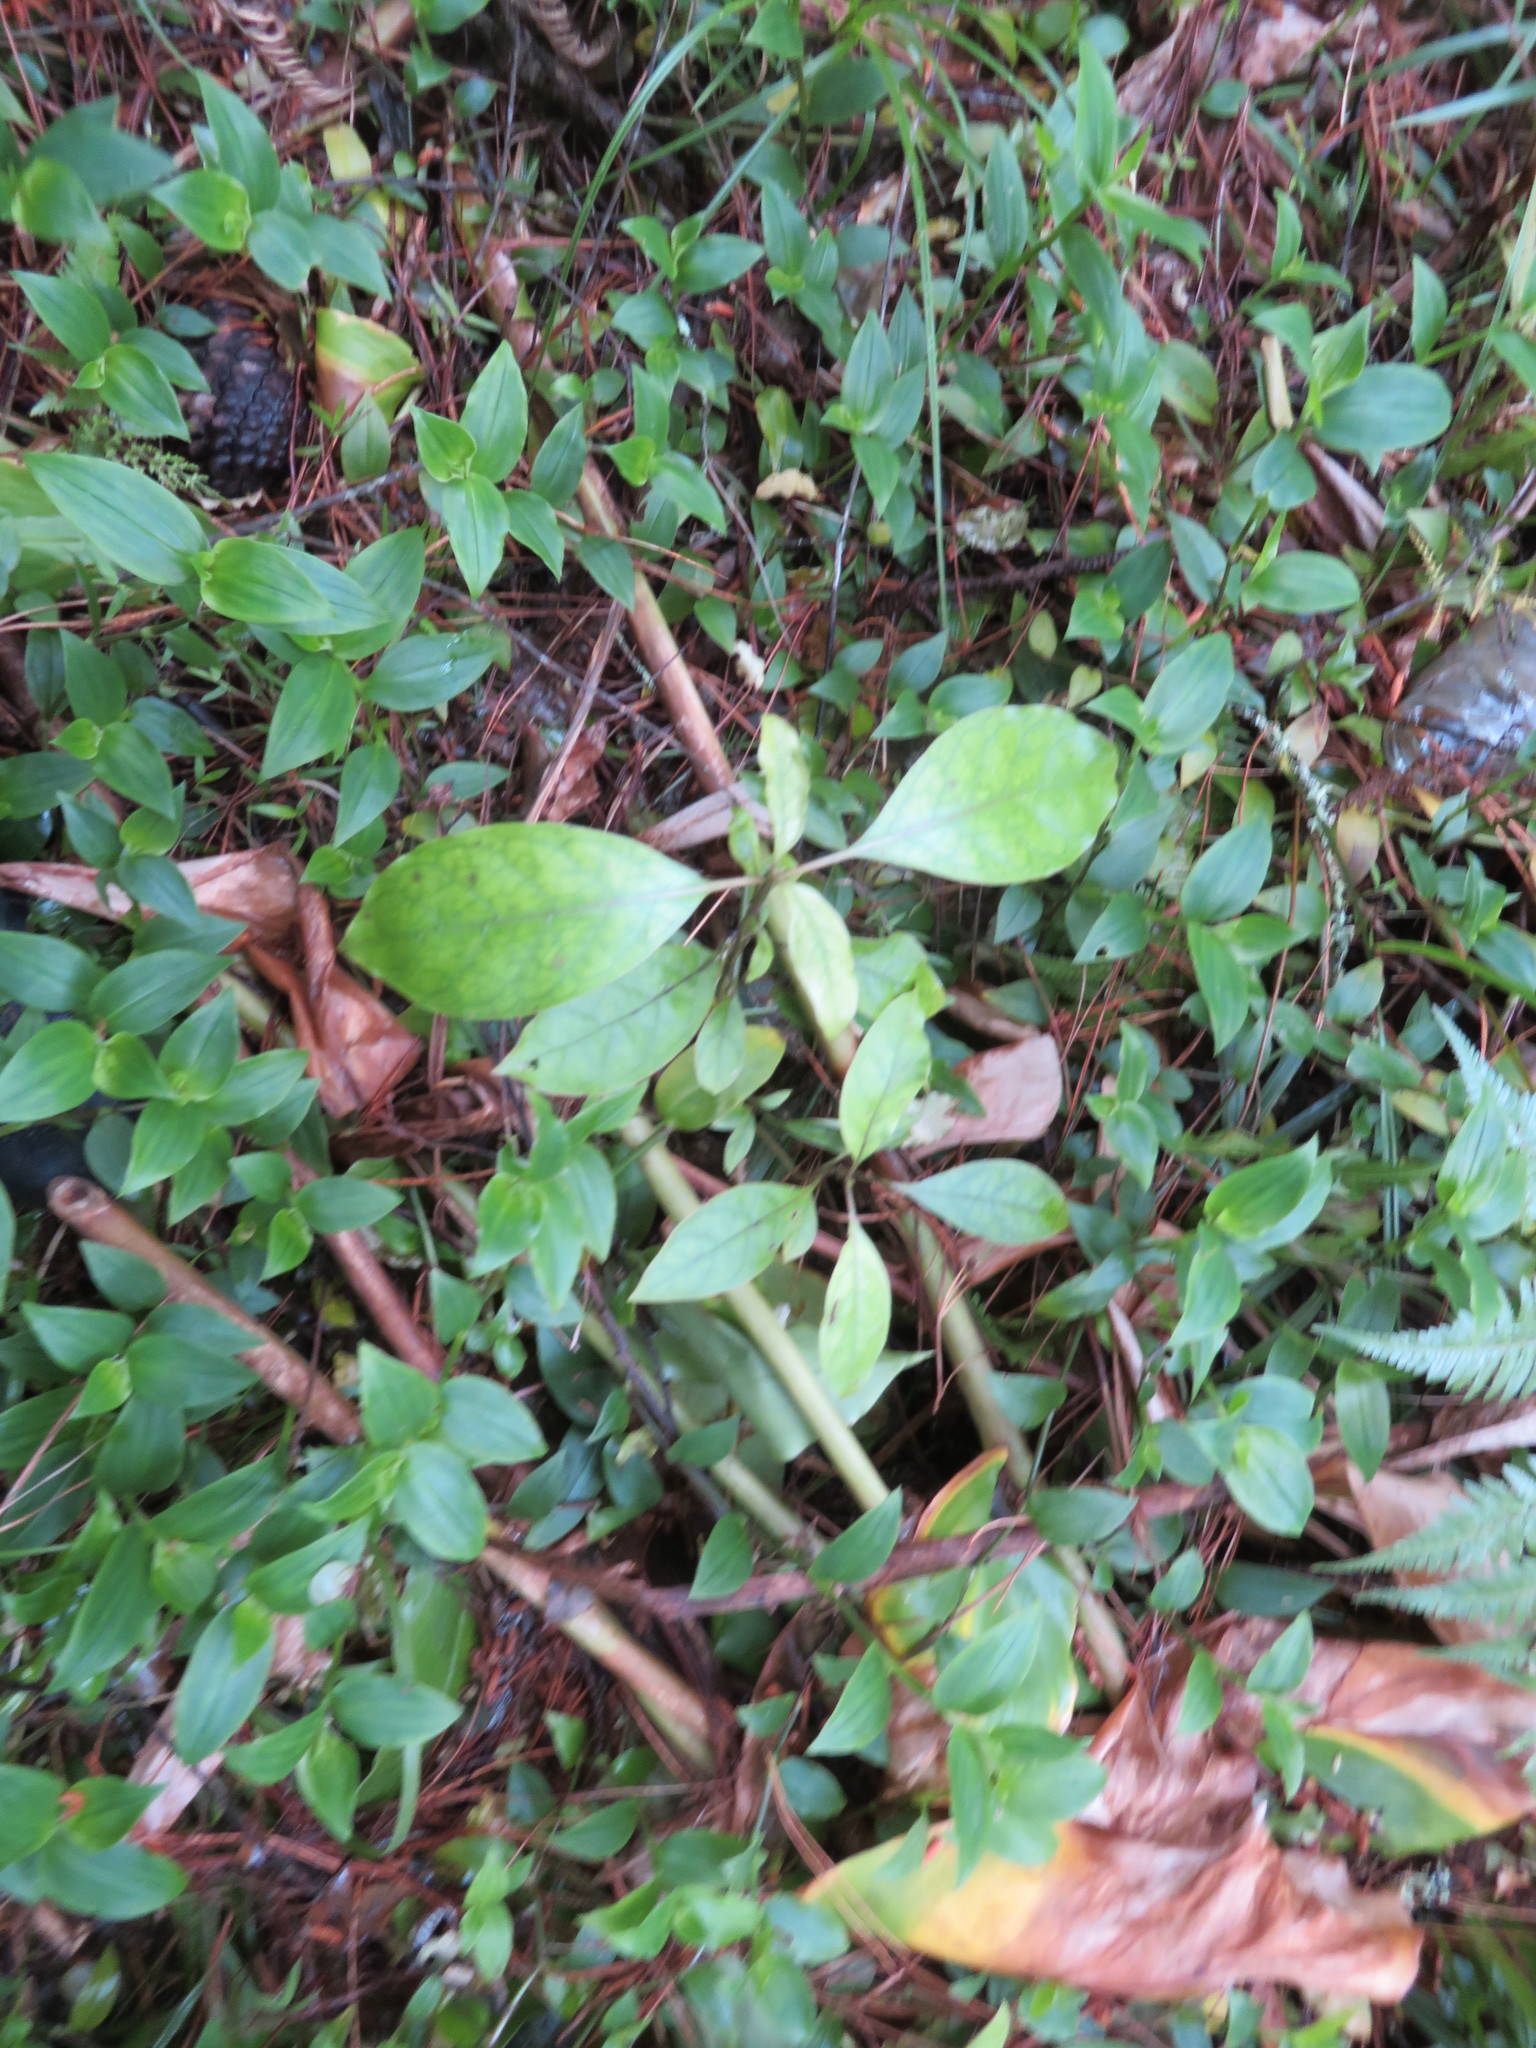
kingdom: Plantae
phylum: Tracheophyta
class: Magnoliopsida
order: Gentianales
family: Rubiaceae
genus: Coprosma
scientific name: Coprosma autumnalis
